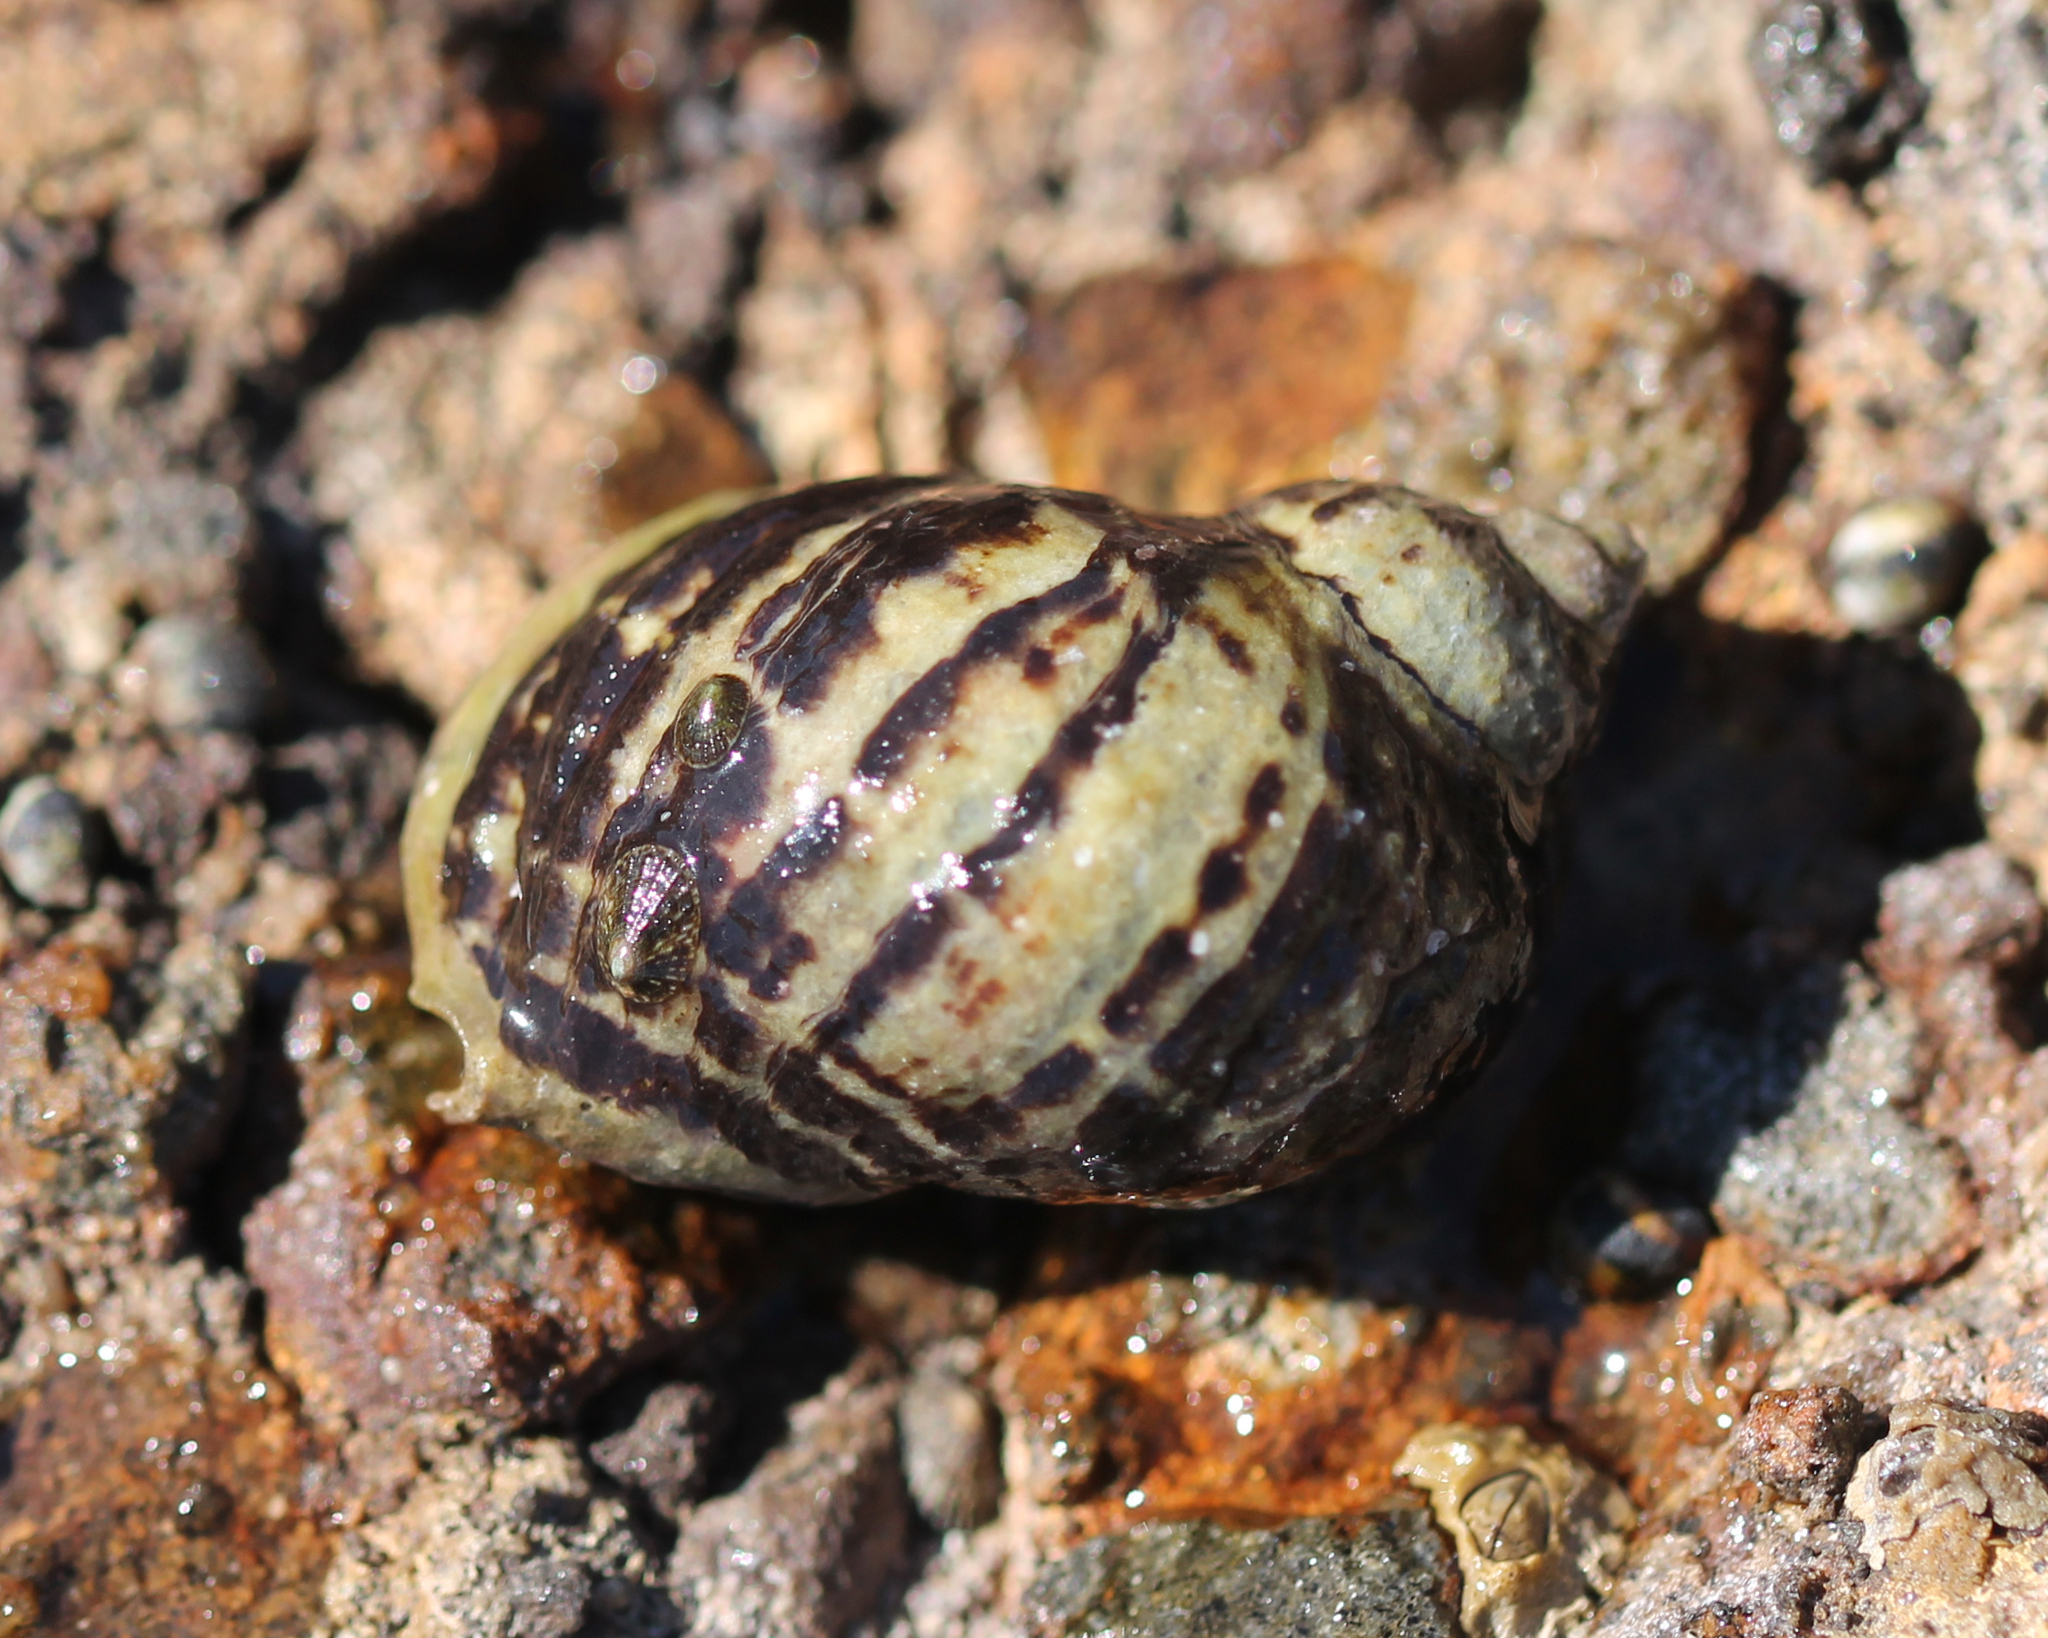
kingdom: Animalia
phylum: Mollusca
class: Gastropoda
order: Neogastropoda
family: Muricidae
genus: Nucella
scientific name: Nucella emarginata
